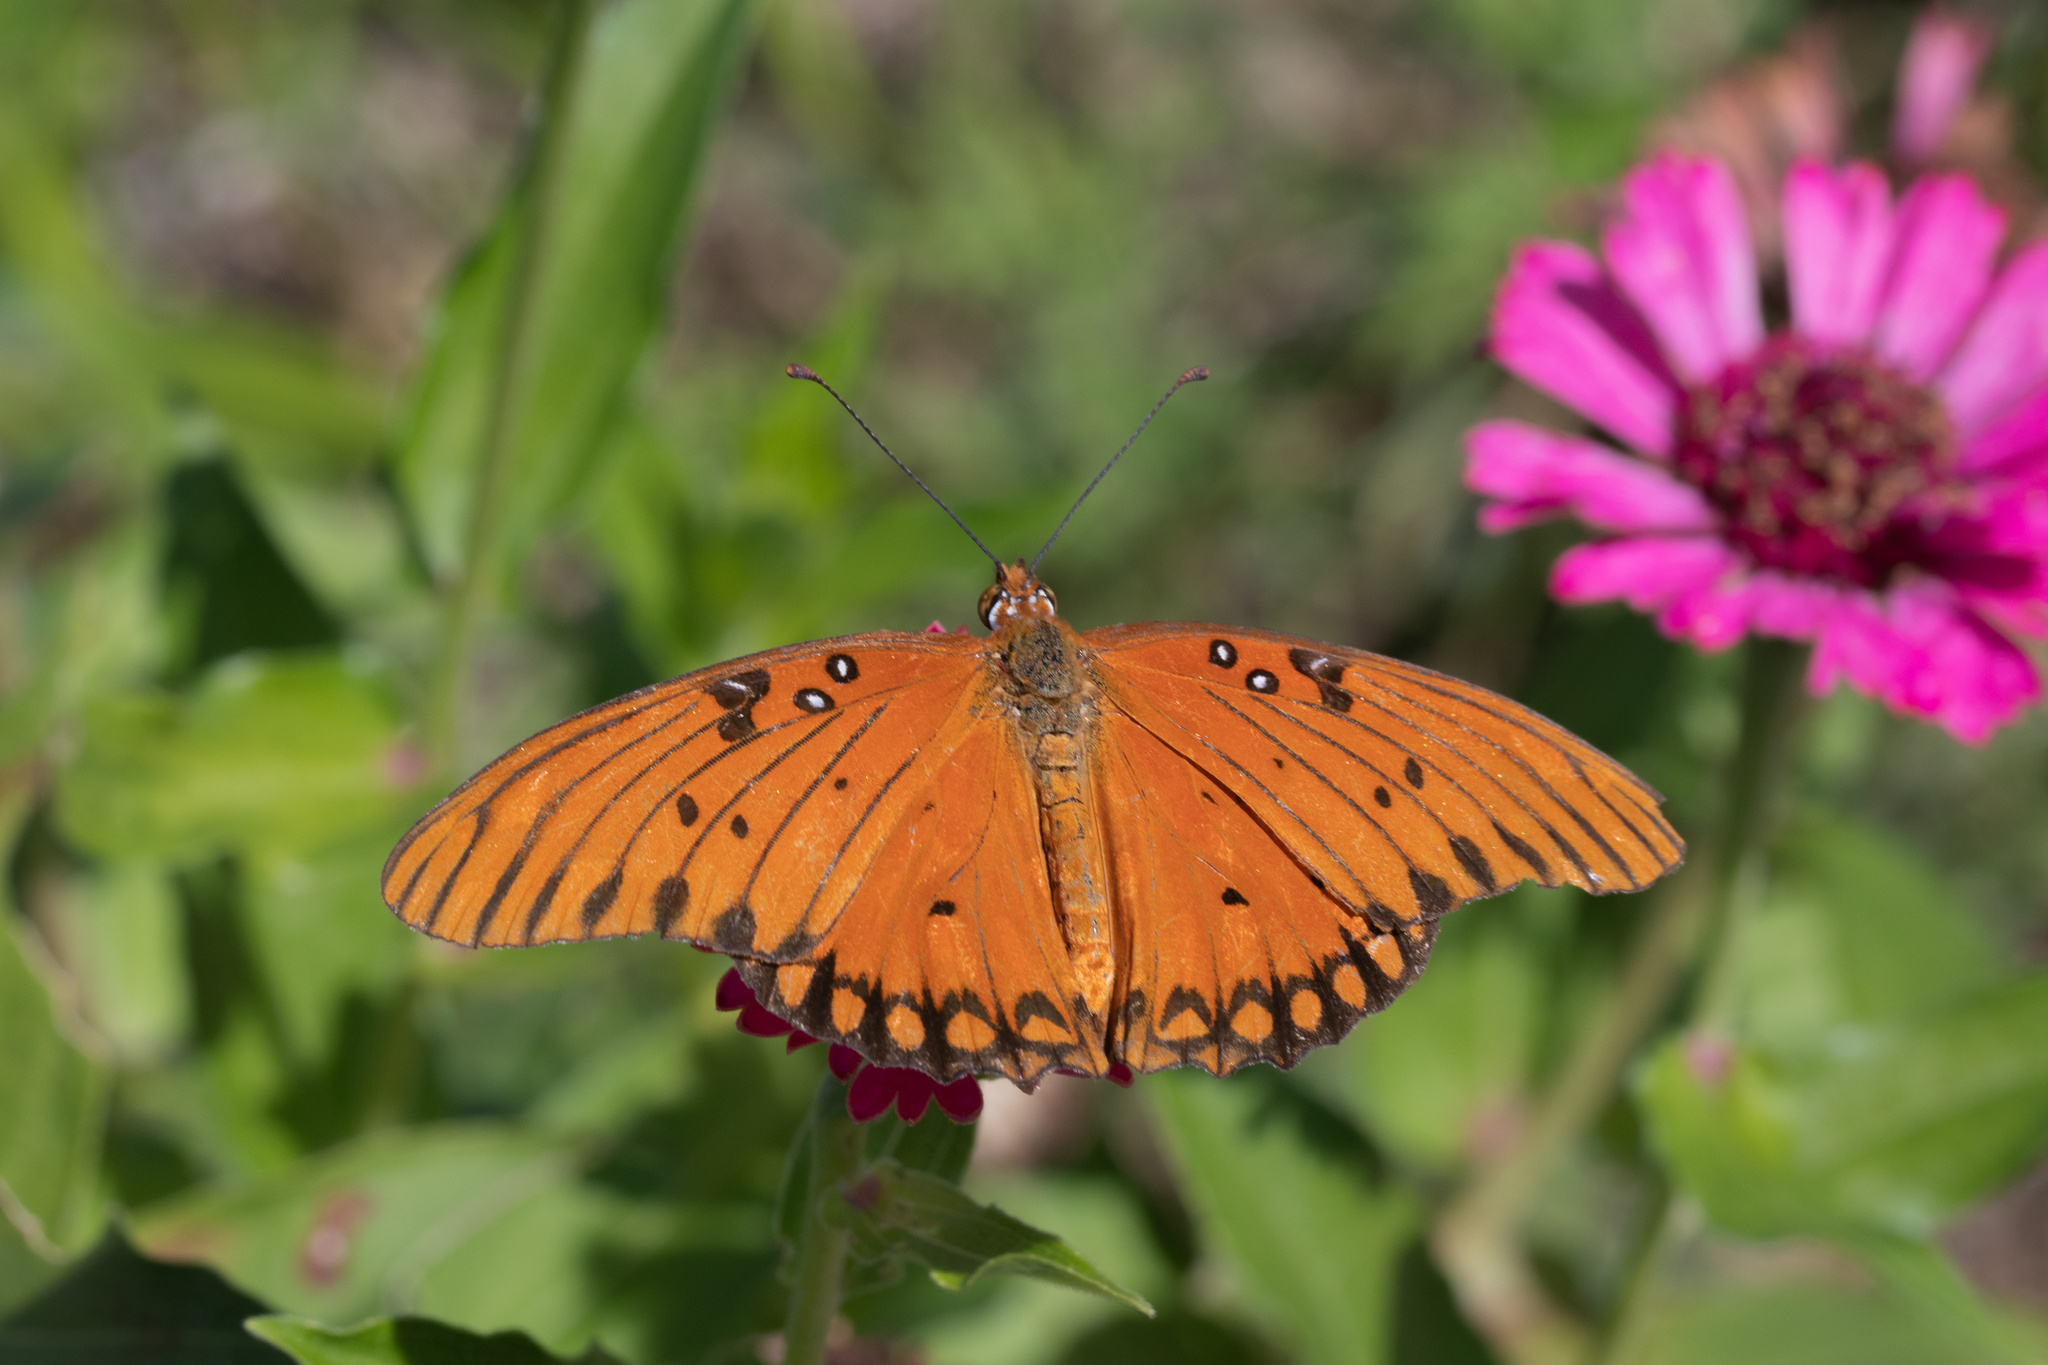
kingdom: Animalia
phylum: Arthropoda
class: Insecta
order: Lepidoptera
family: Nymphalidae
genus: Dione
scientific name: Dione vanillae
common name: Gulf fritillary
